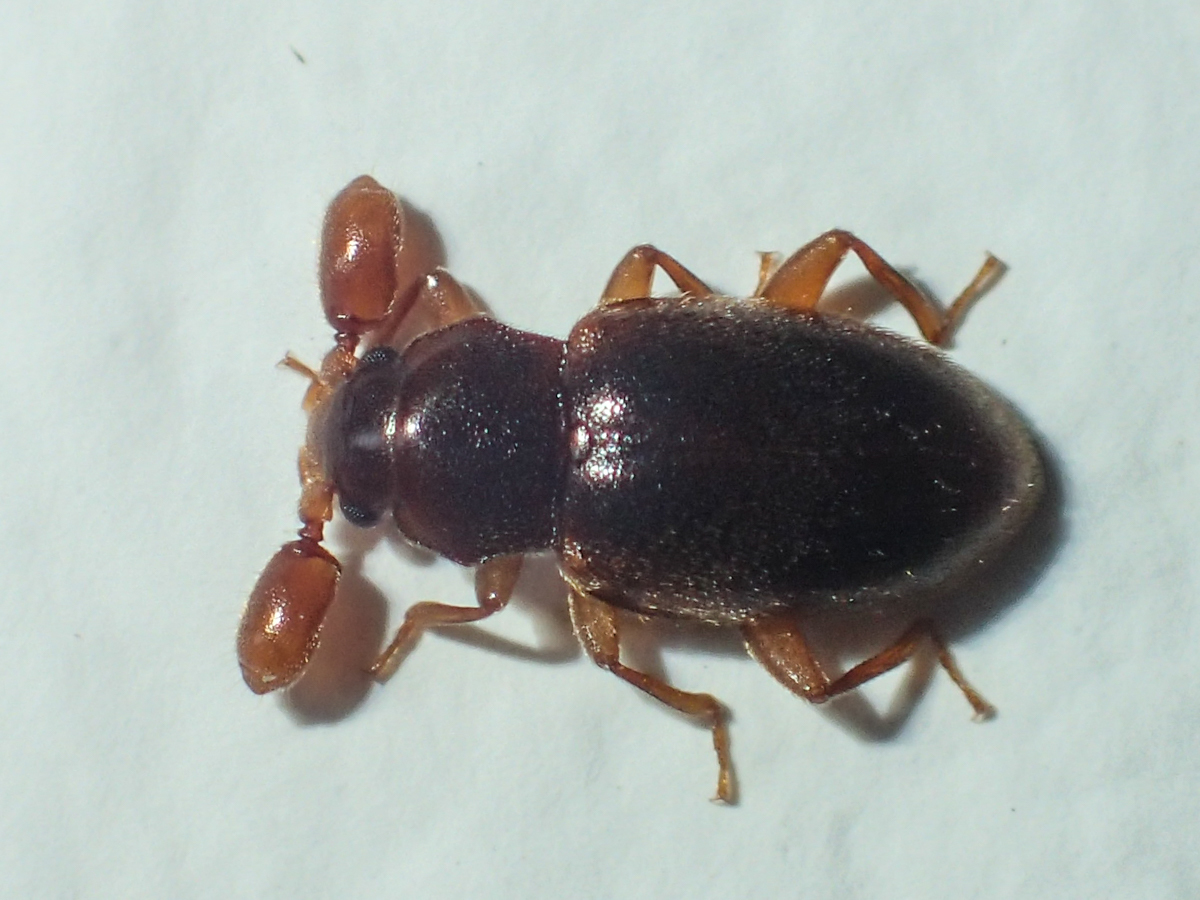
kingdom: Animalia
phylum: Arthropoda
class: Insecta
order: Coleoptera
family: Endomychidae
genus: Trochoideus
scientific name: Trochoideus desjardinsi
